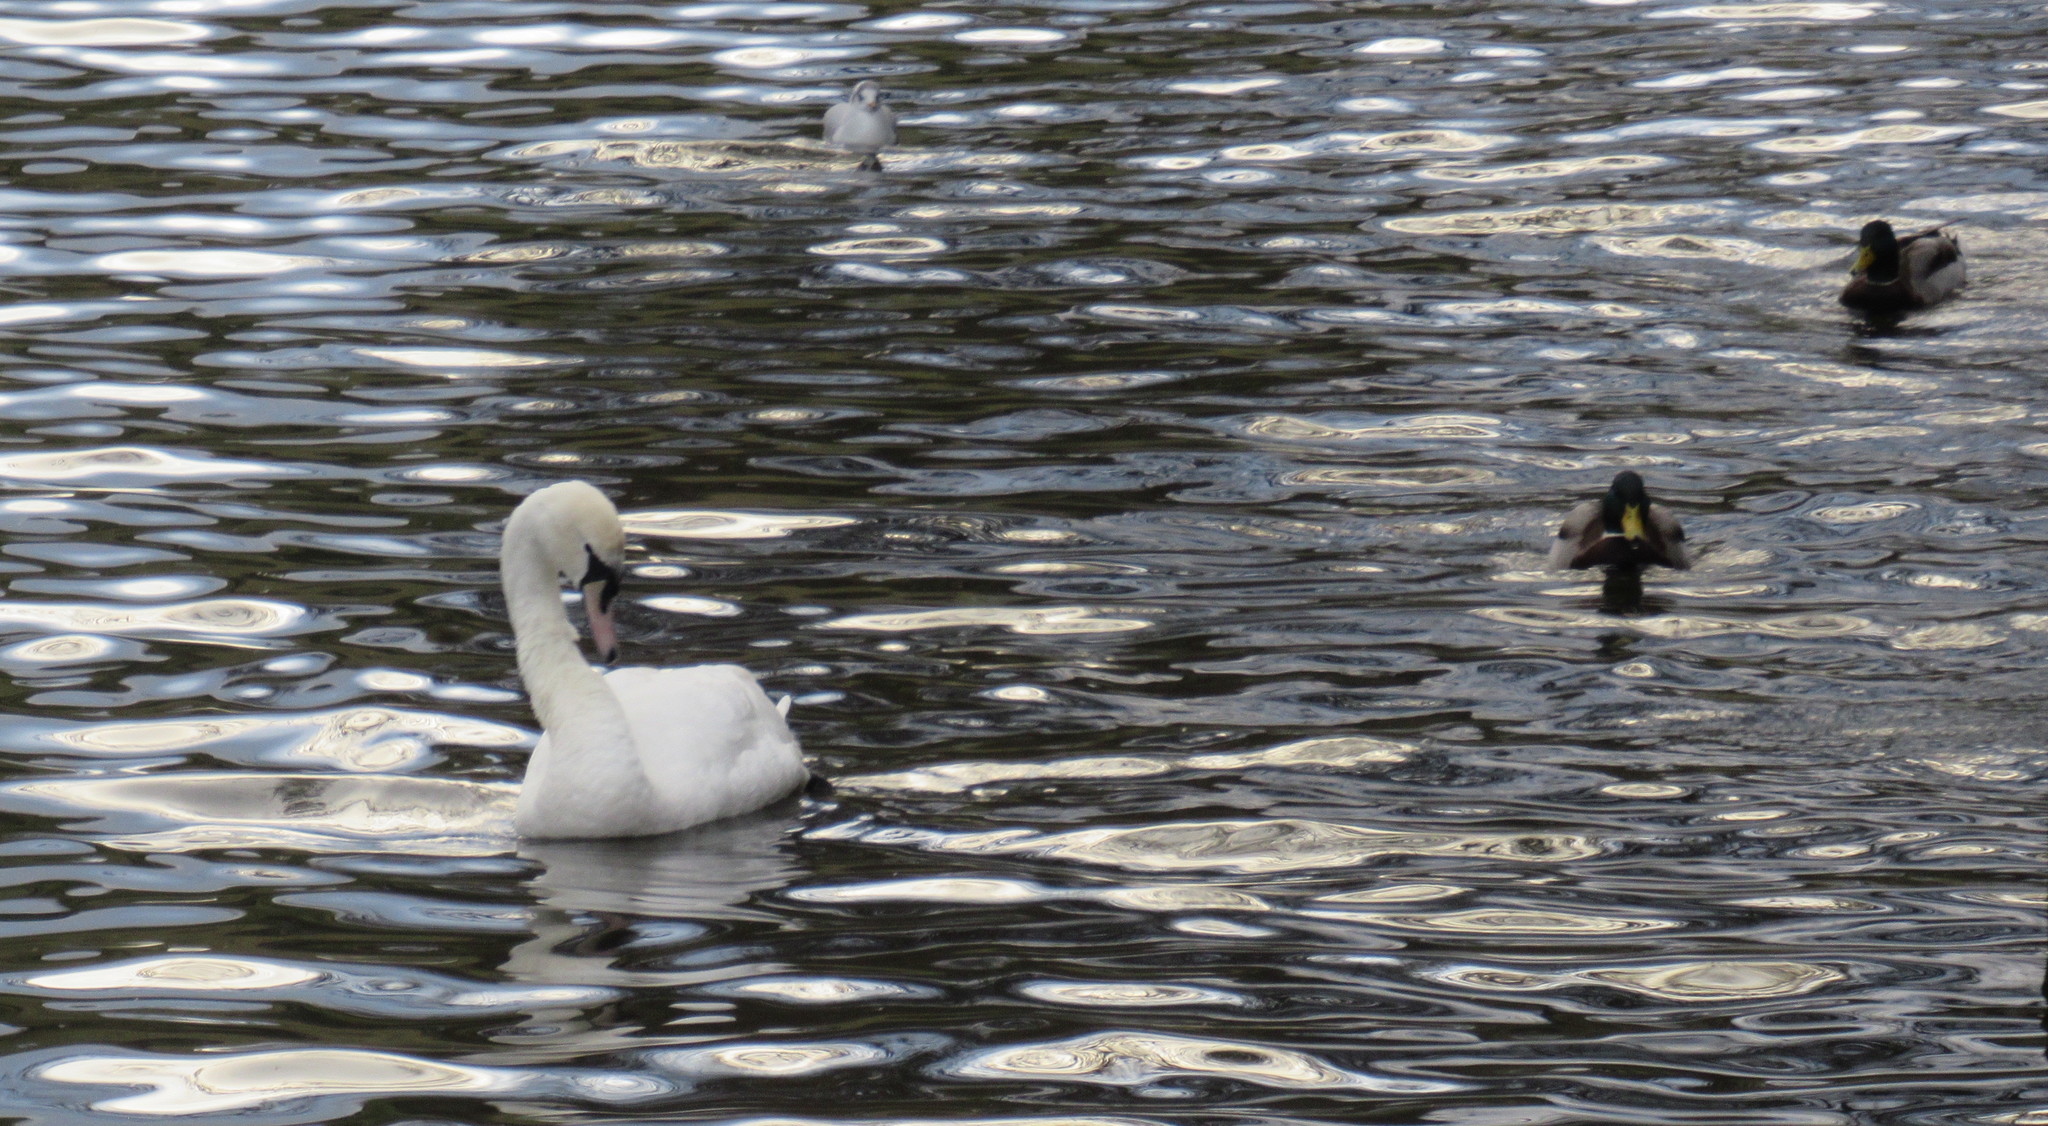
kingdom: Animalia
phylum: Chordata
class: Aves
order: Anseriformes
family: Anatidae
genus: Cygnus
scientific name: Cygnus olor
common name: Mute swan
